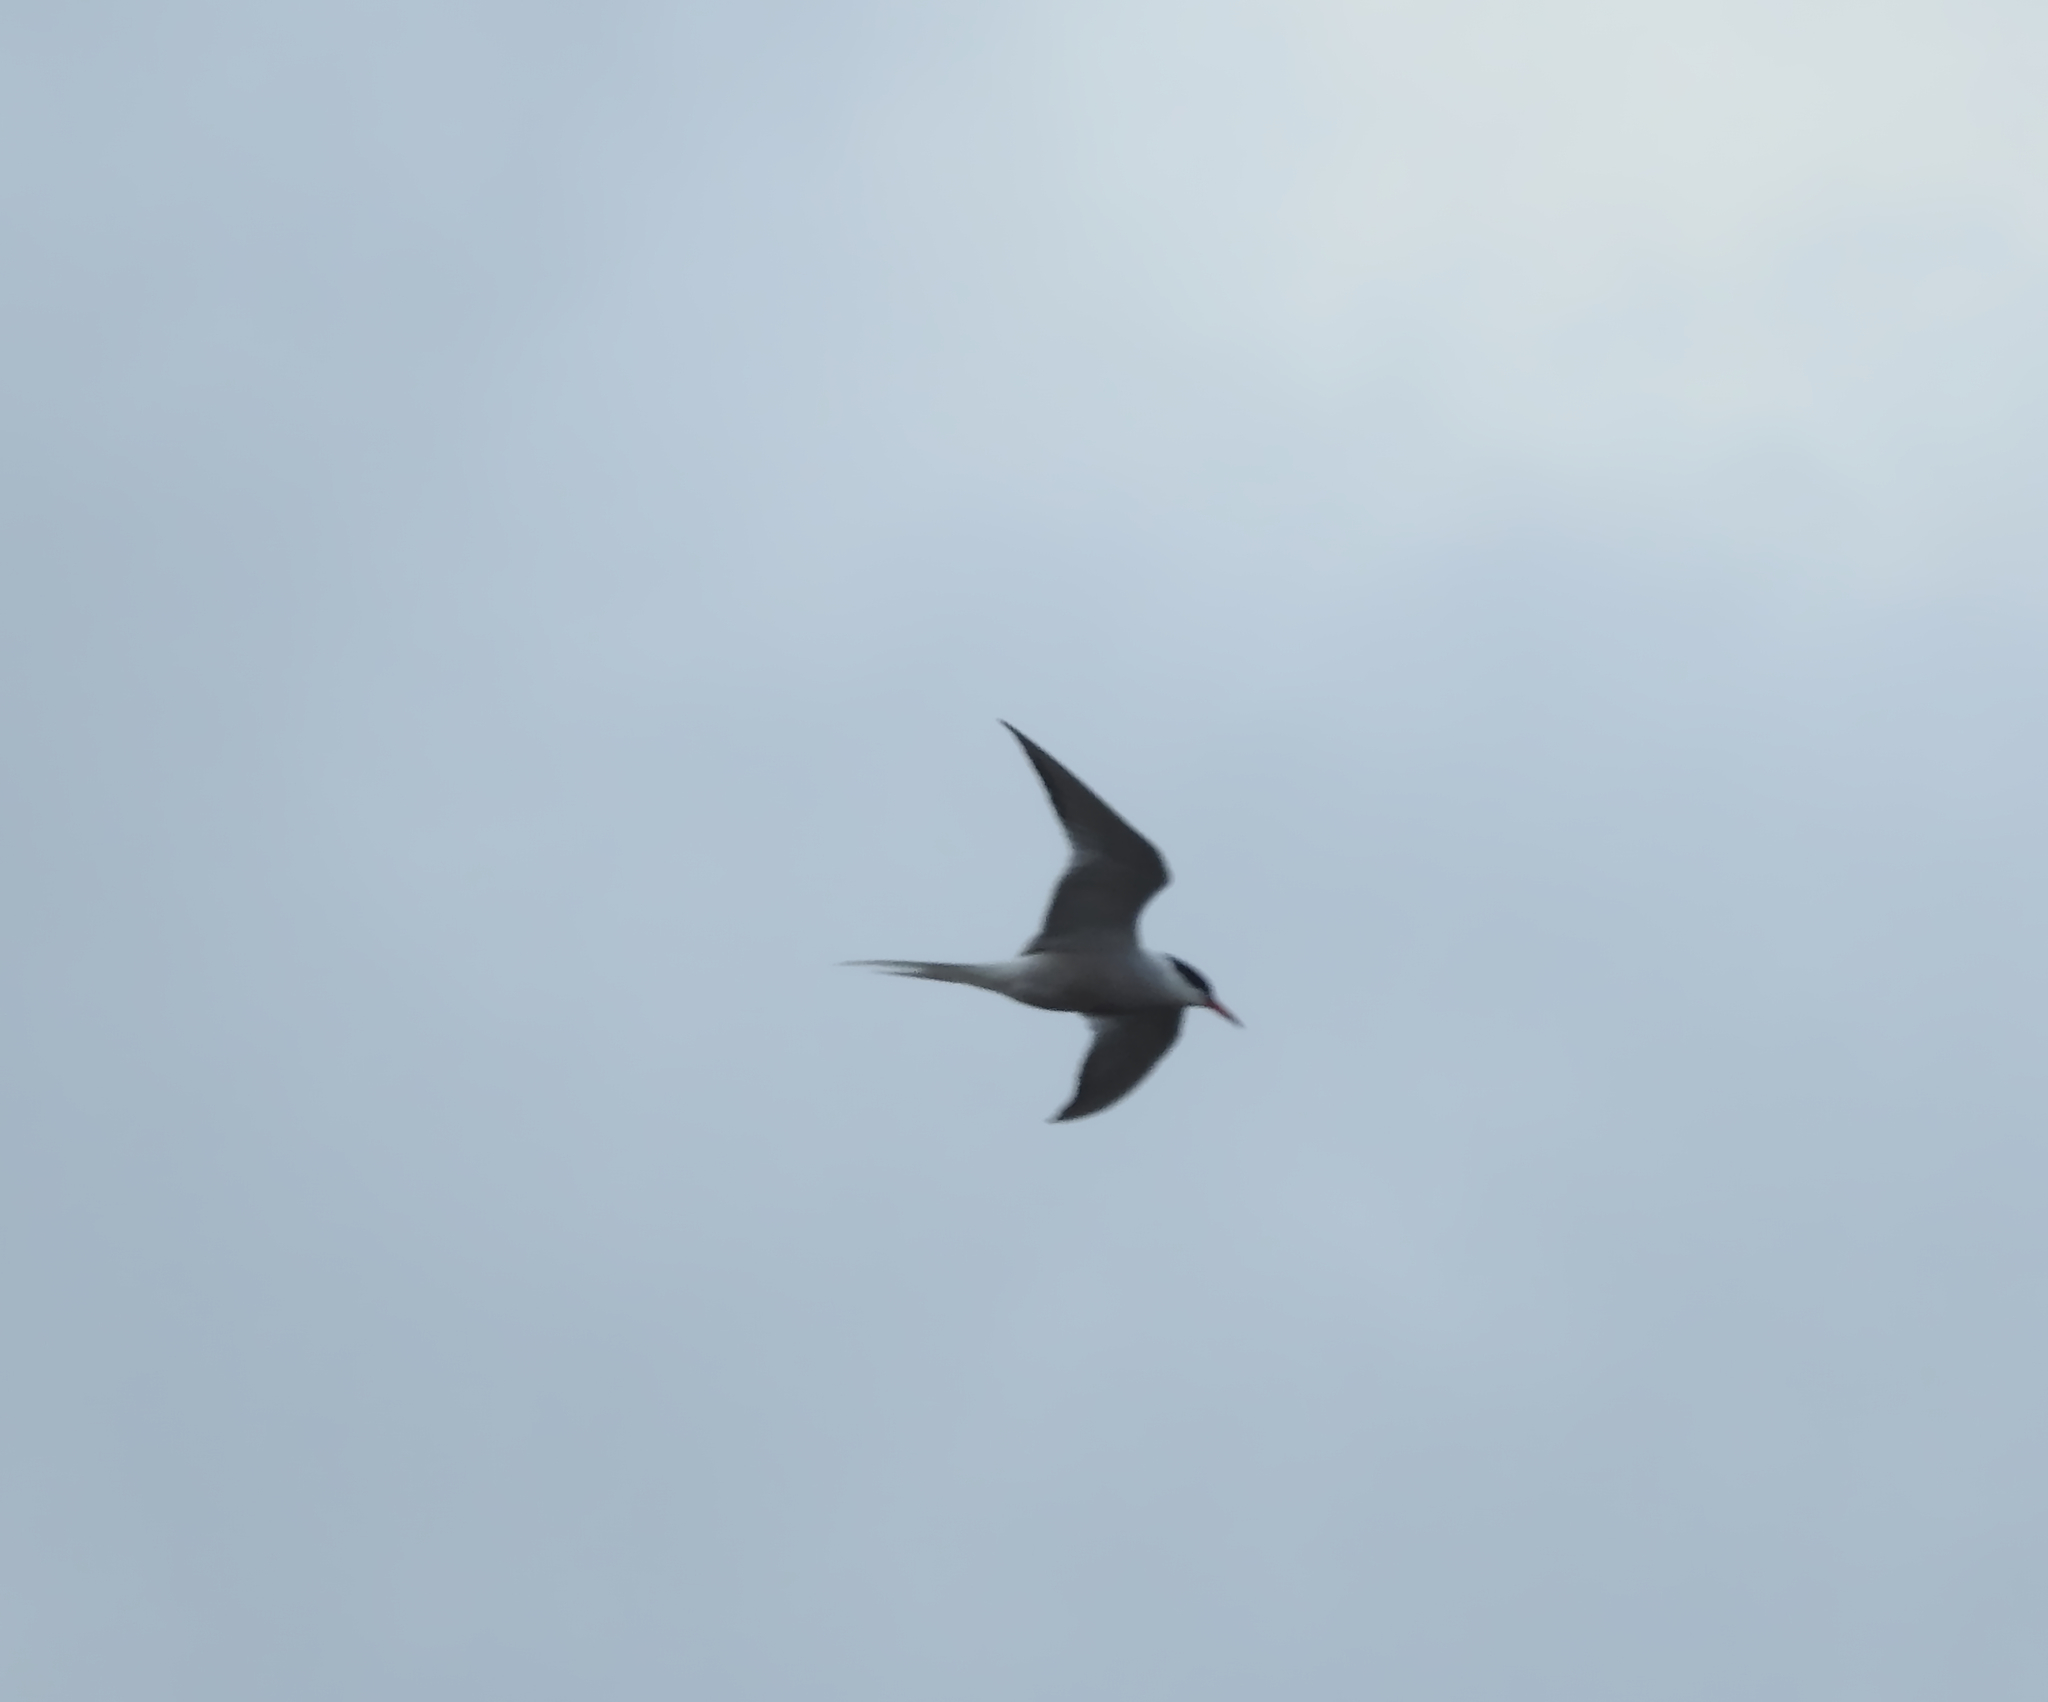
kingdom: Animalia
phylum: Chordata
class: Aves
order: Charadriiformes
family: Laridae
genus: Sterna
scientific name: Sterna hirundo
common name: Common tern
